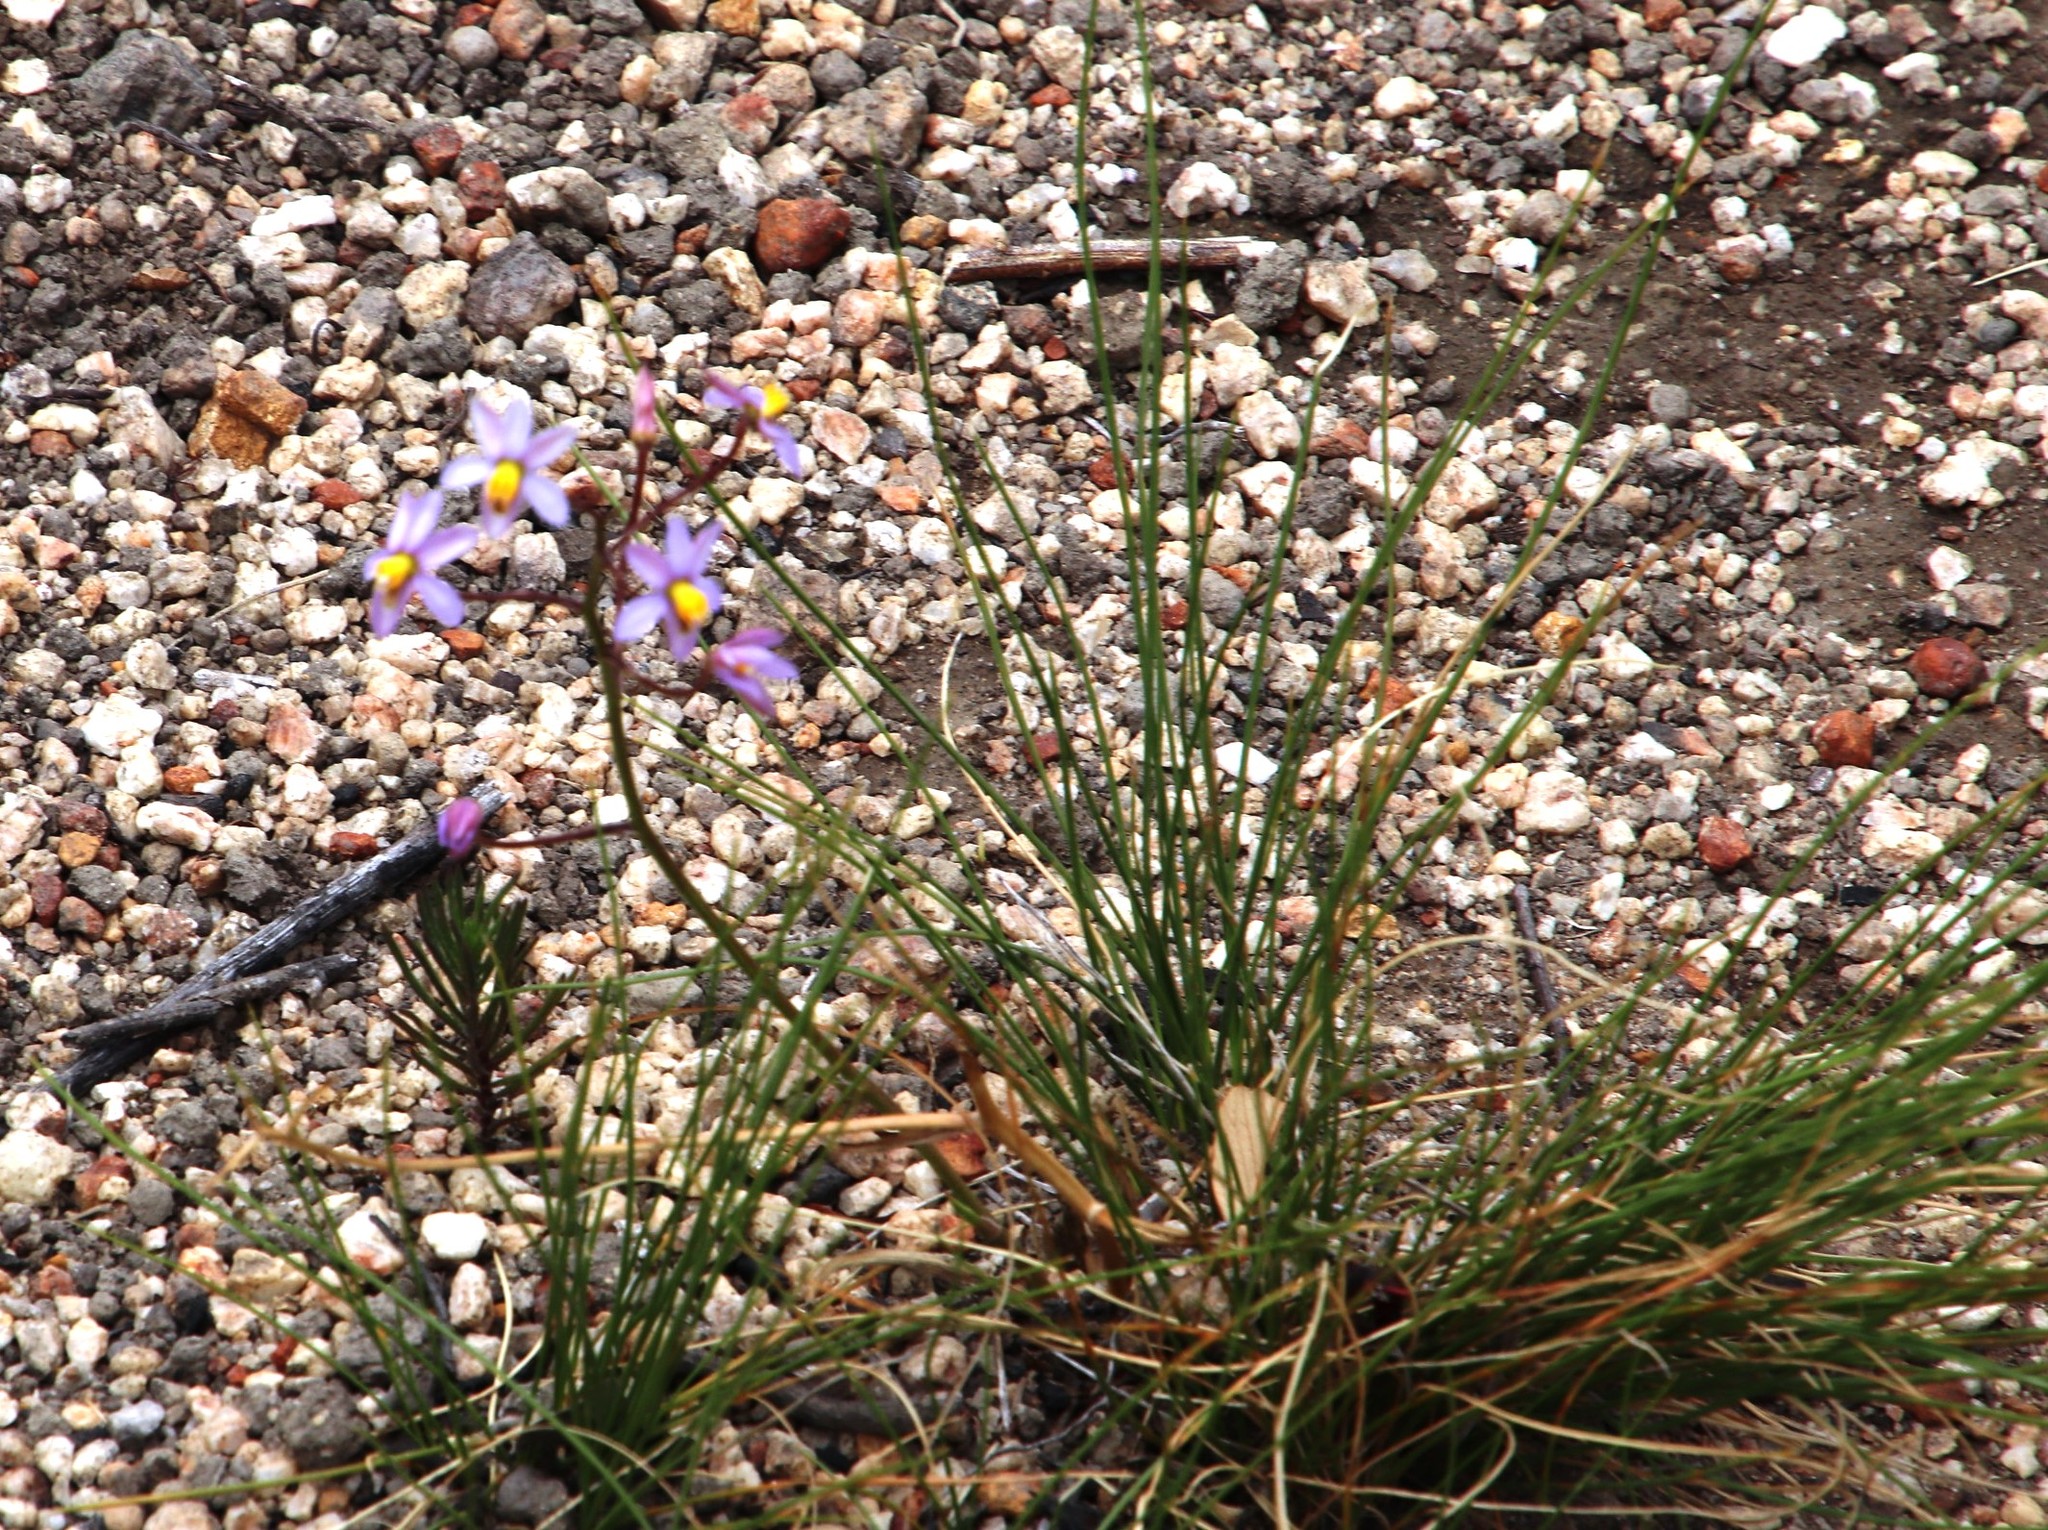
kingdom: Plantae
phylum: Tracheophyta
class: Liliopsida
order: Asparagales
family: Tecophilaeaceae
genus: Cyanella
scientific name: Cyanella hyacinthoides
